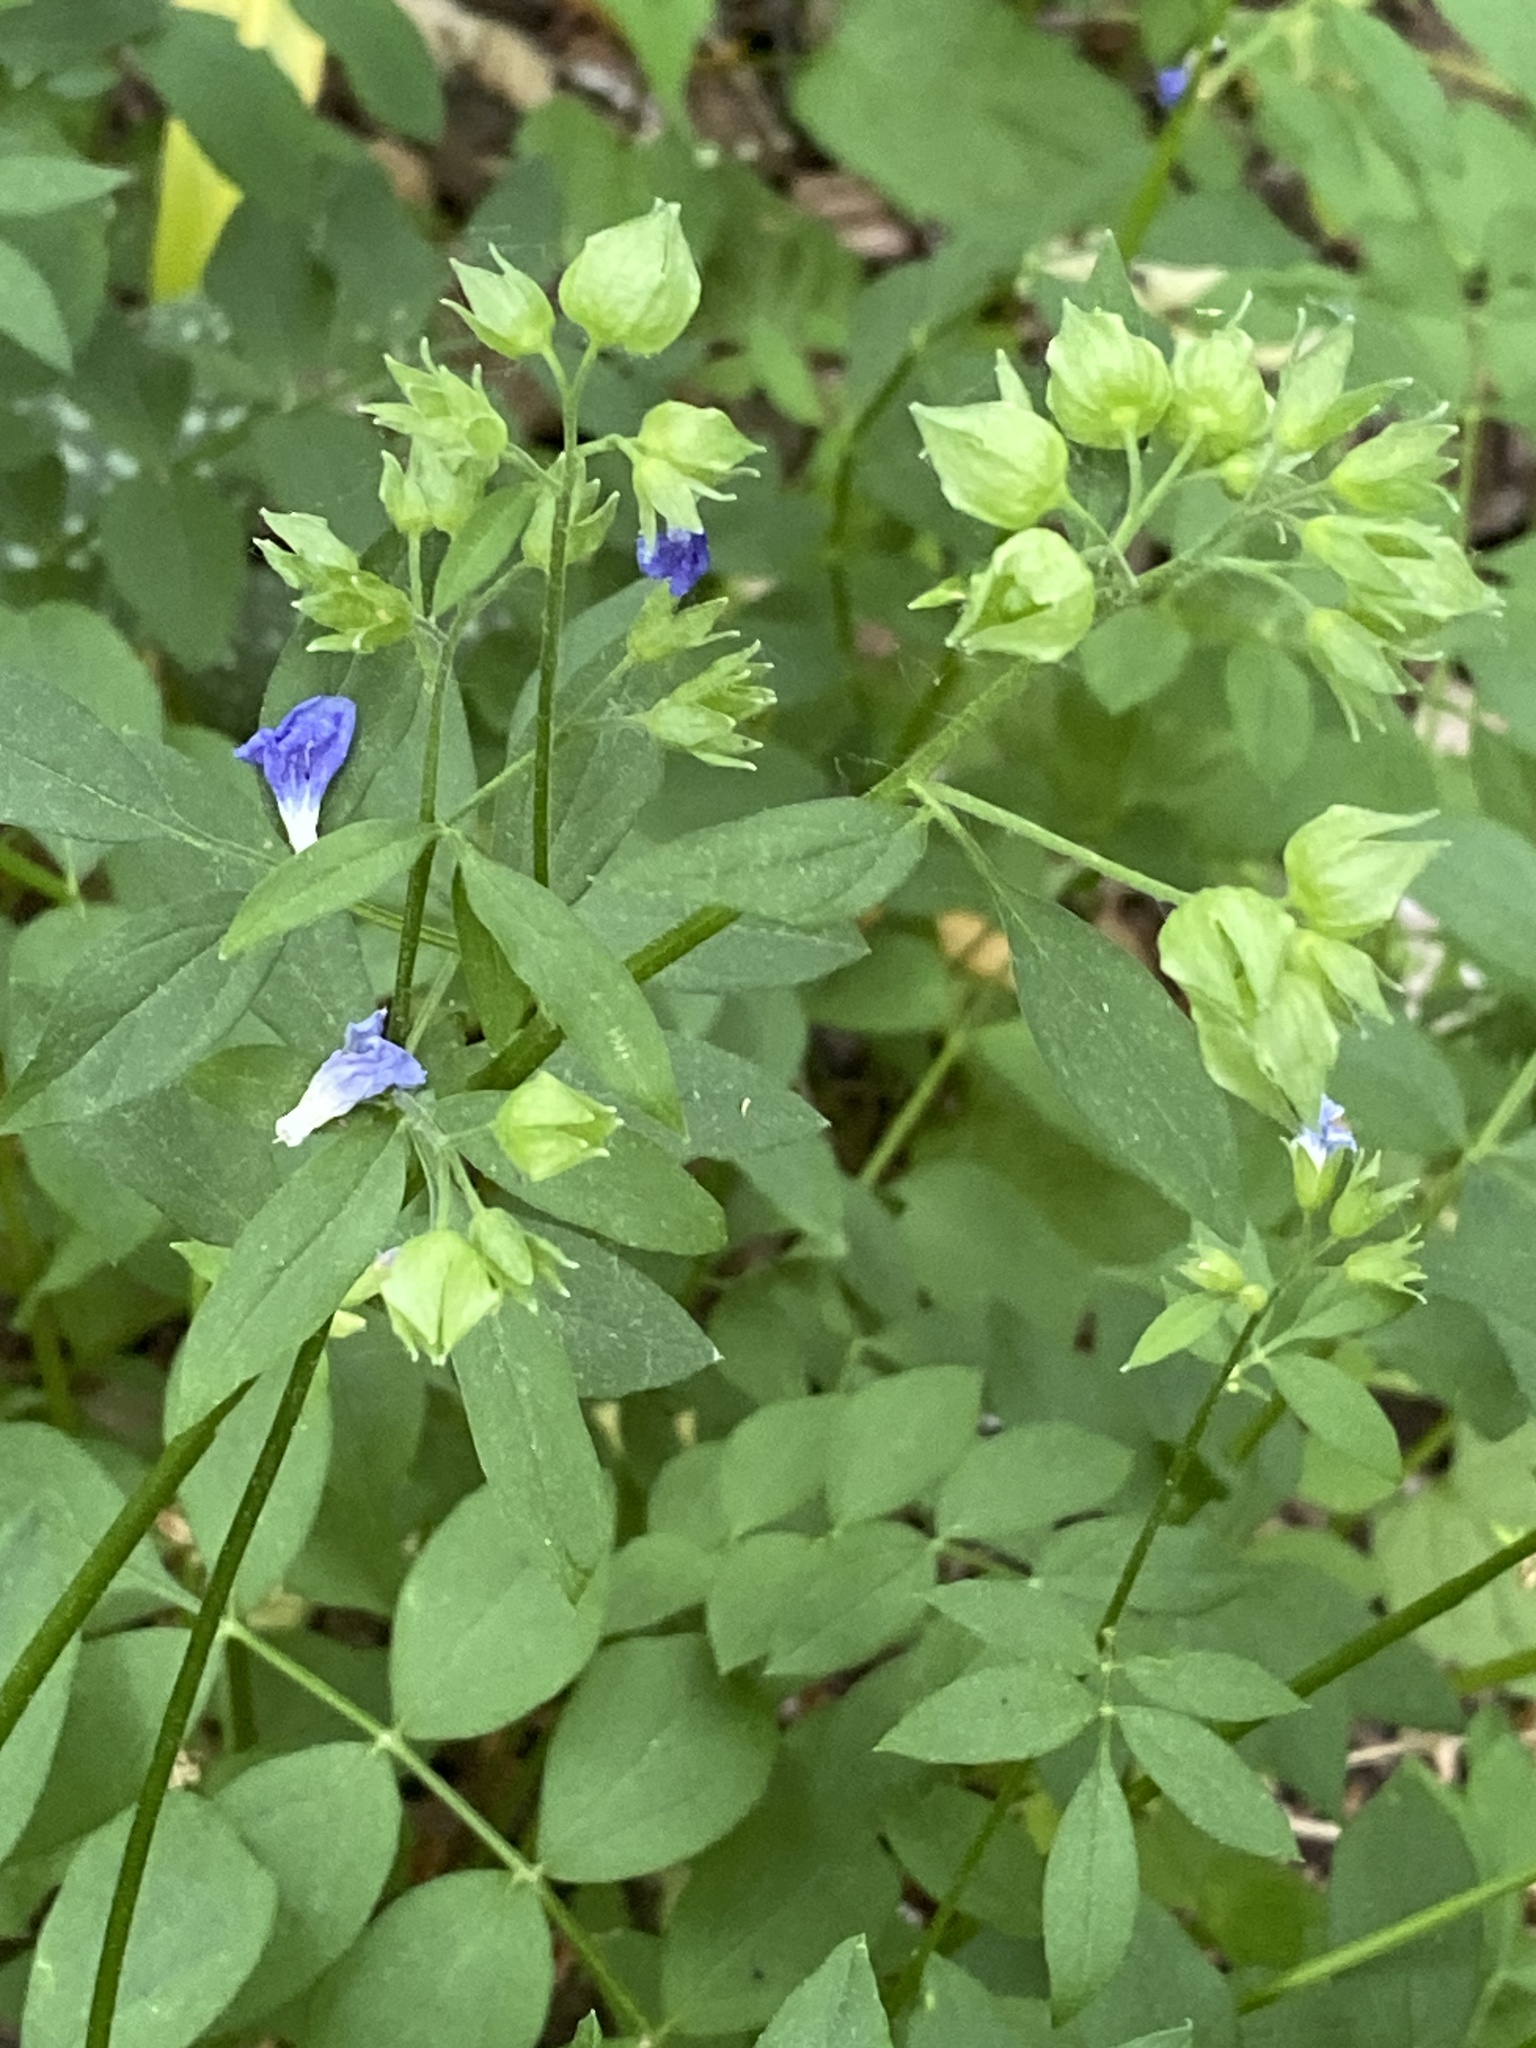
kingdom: Plantae
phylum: Tracheophyta
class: Magnoliopsida
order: Ericales
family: Polemoniaceae
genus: Polemonium
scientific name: Polemonium reptans
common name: Creeping jacob's-ladder
